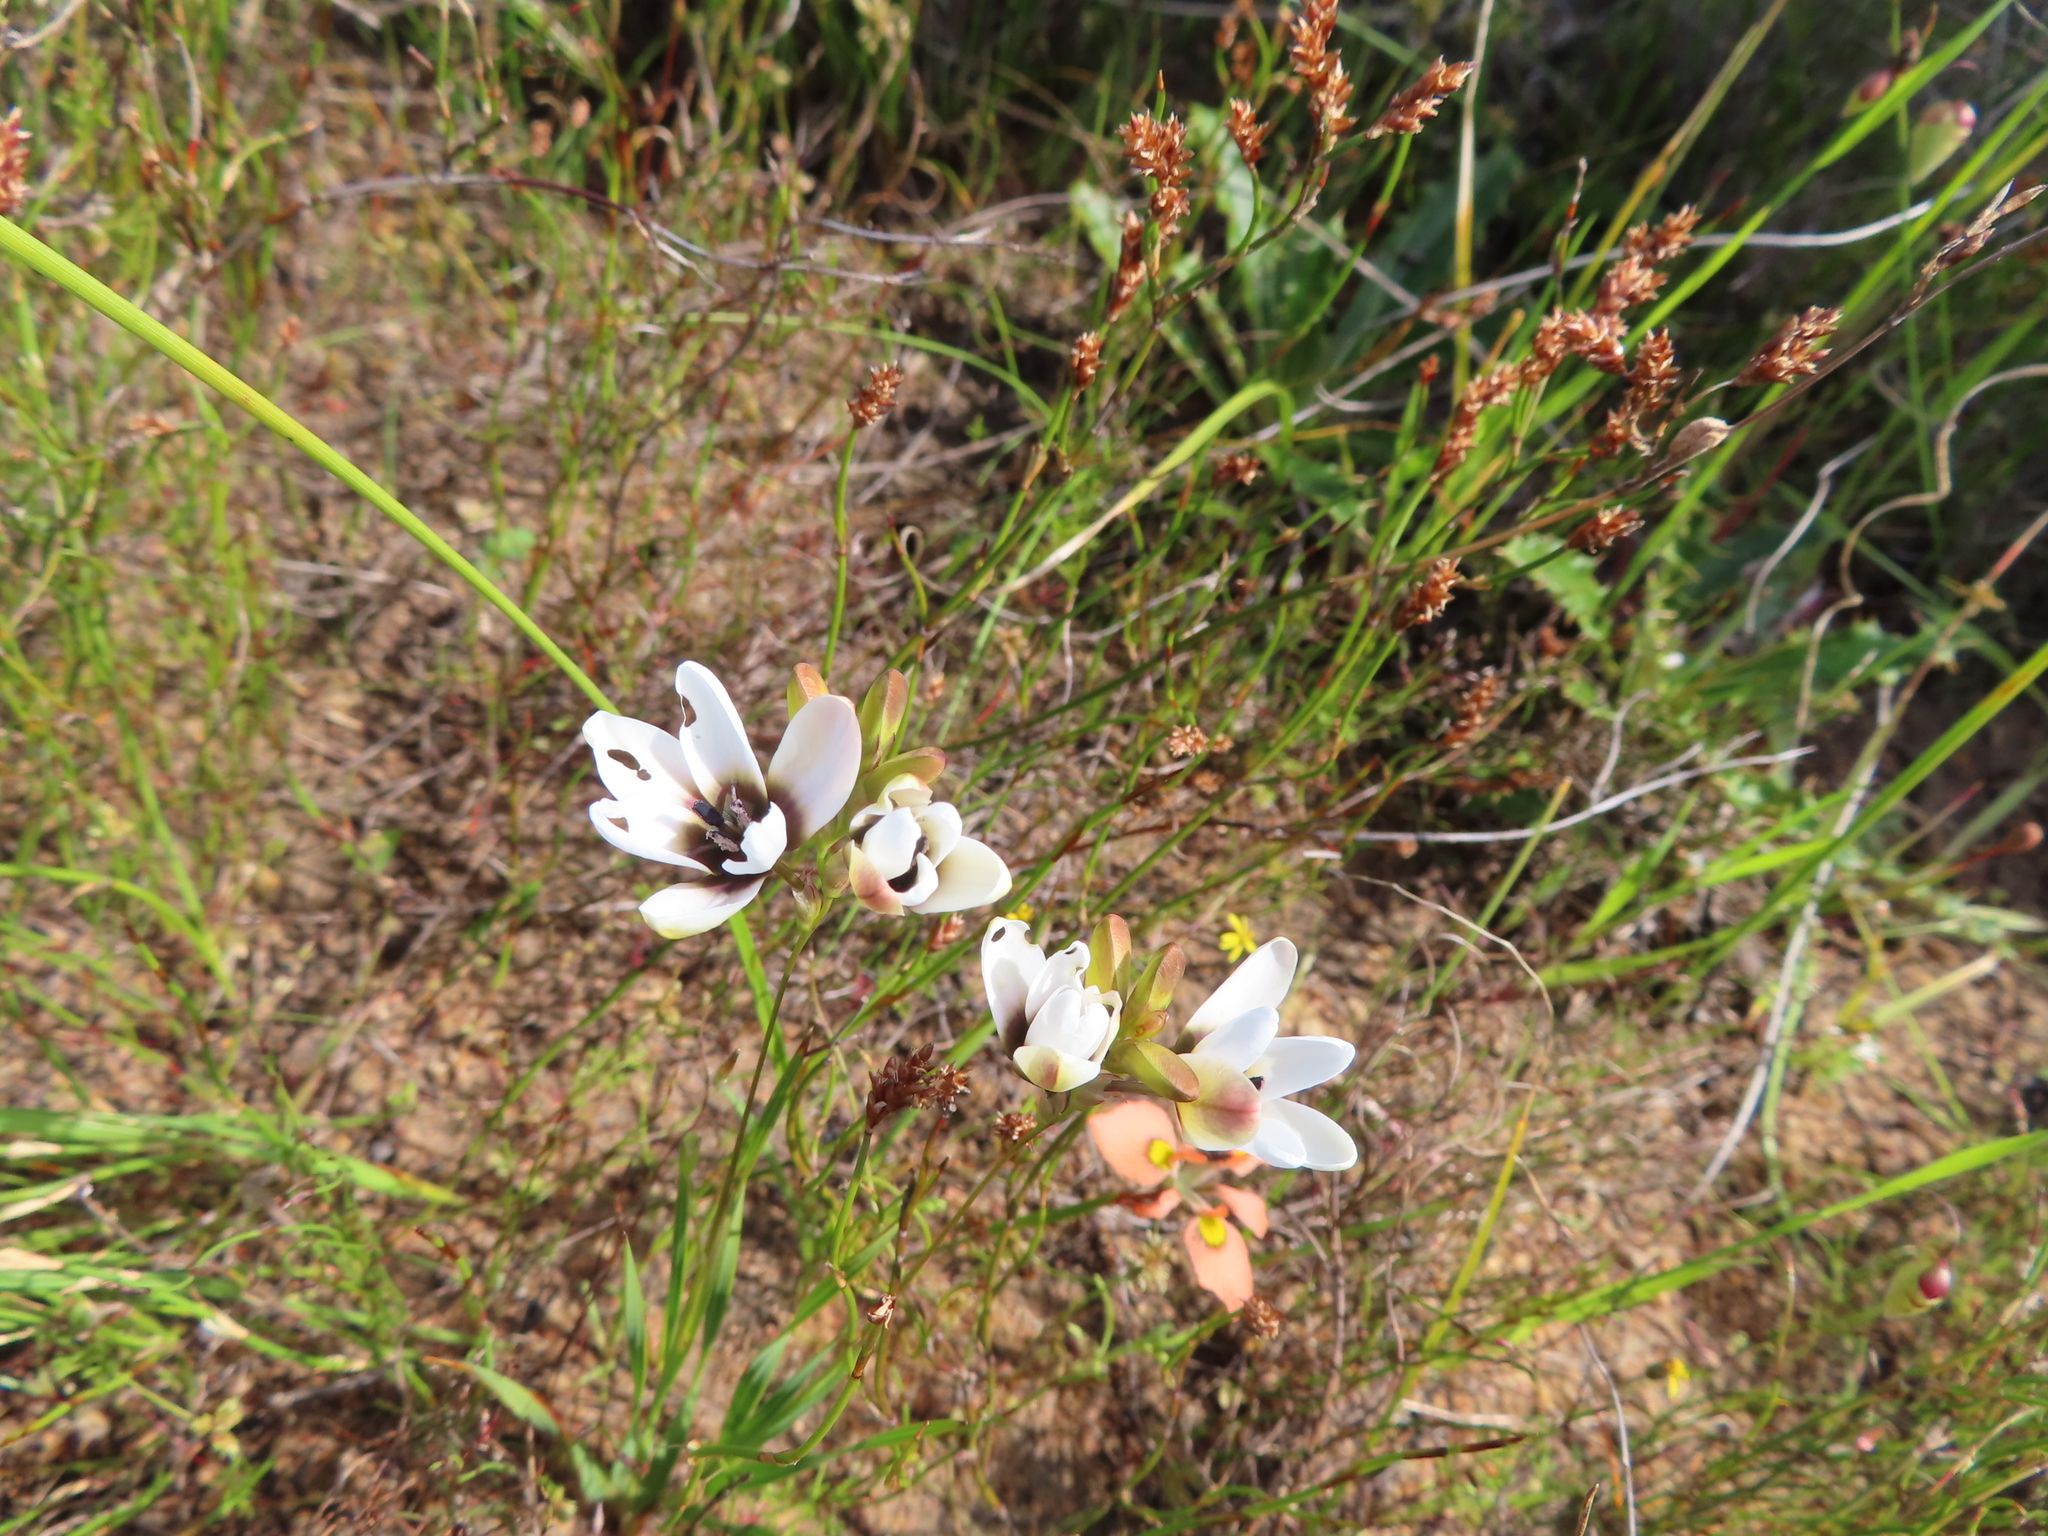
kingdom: Plantae
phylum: Tracheophyta
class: Liliopsida
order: Asparagales
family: Iridaceae
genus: Ixia
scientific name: Ixia versicolor
